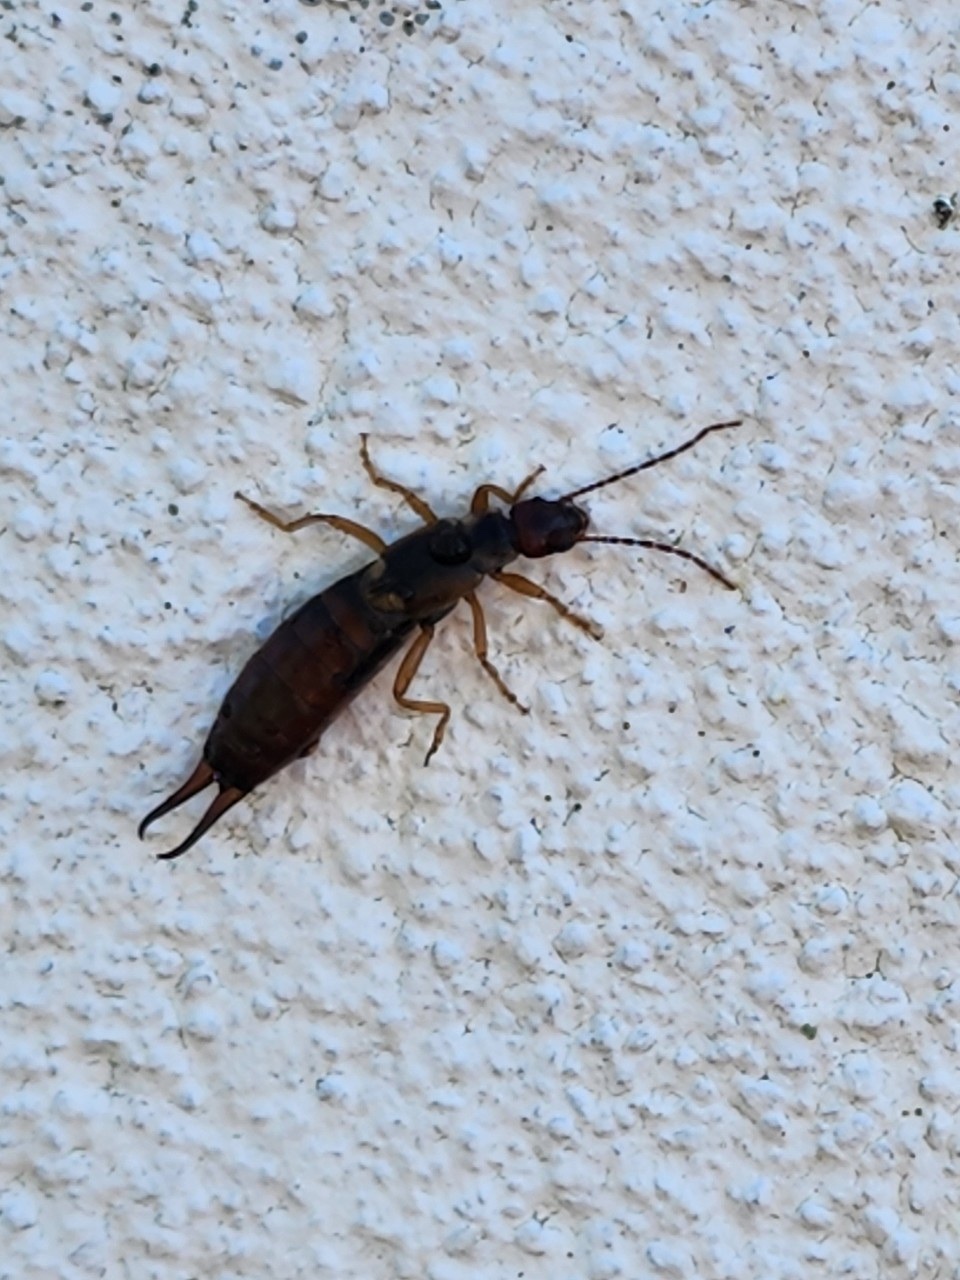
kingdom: Animalia
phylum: Arthropoda
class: Insecta
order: Dermaptera
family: Forficulidae
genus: Forficula
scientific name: Forficula
